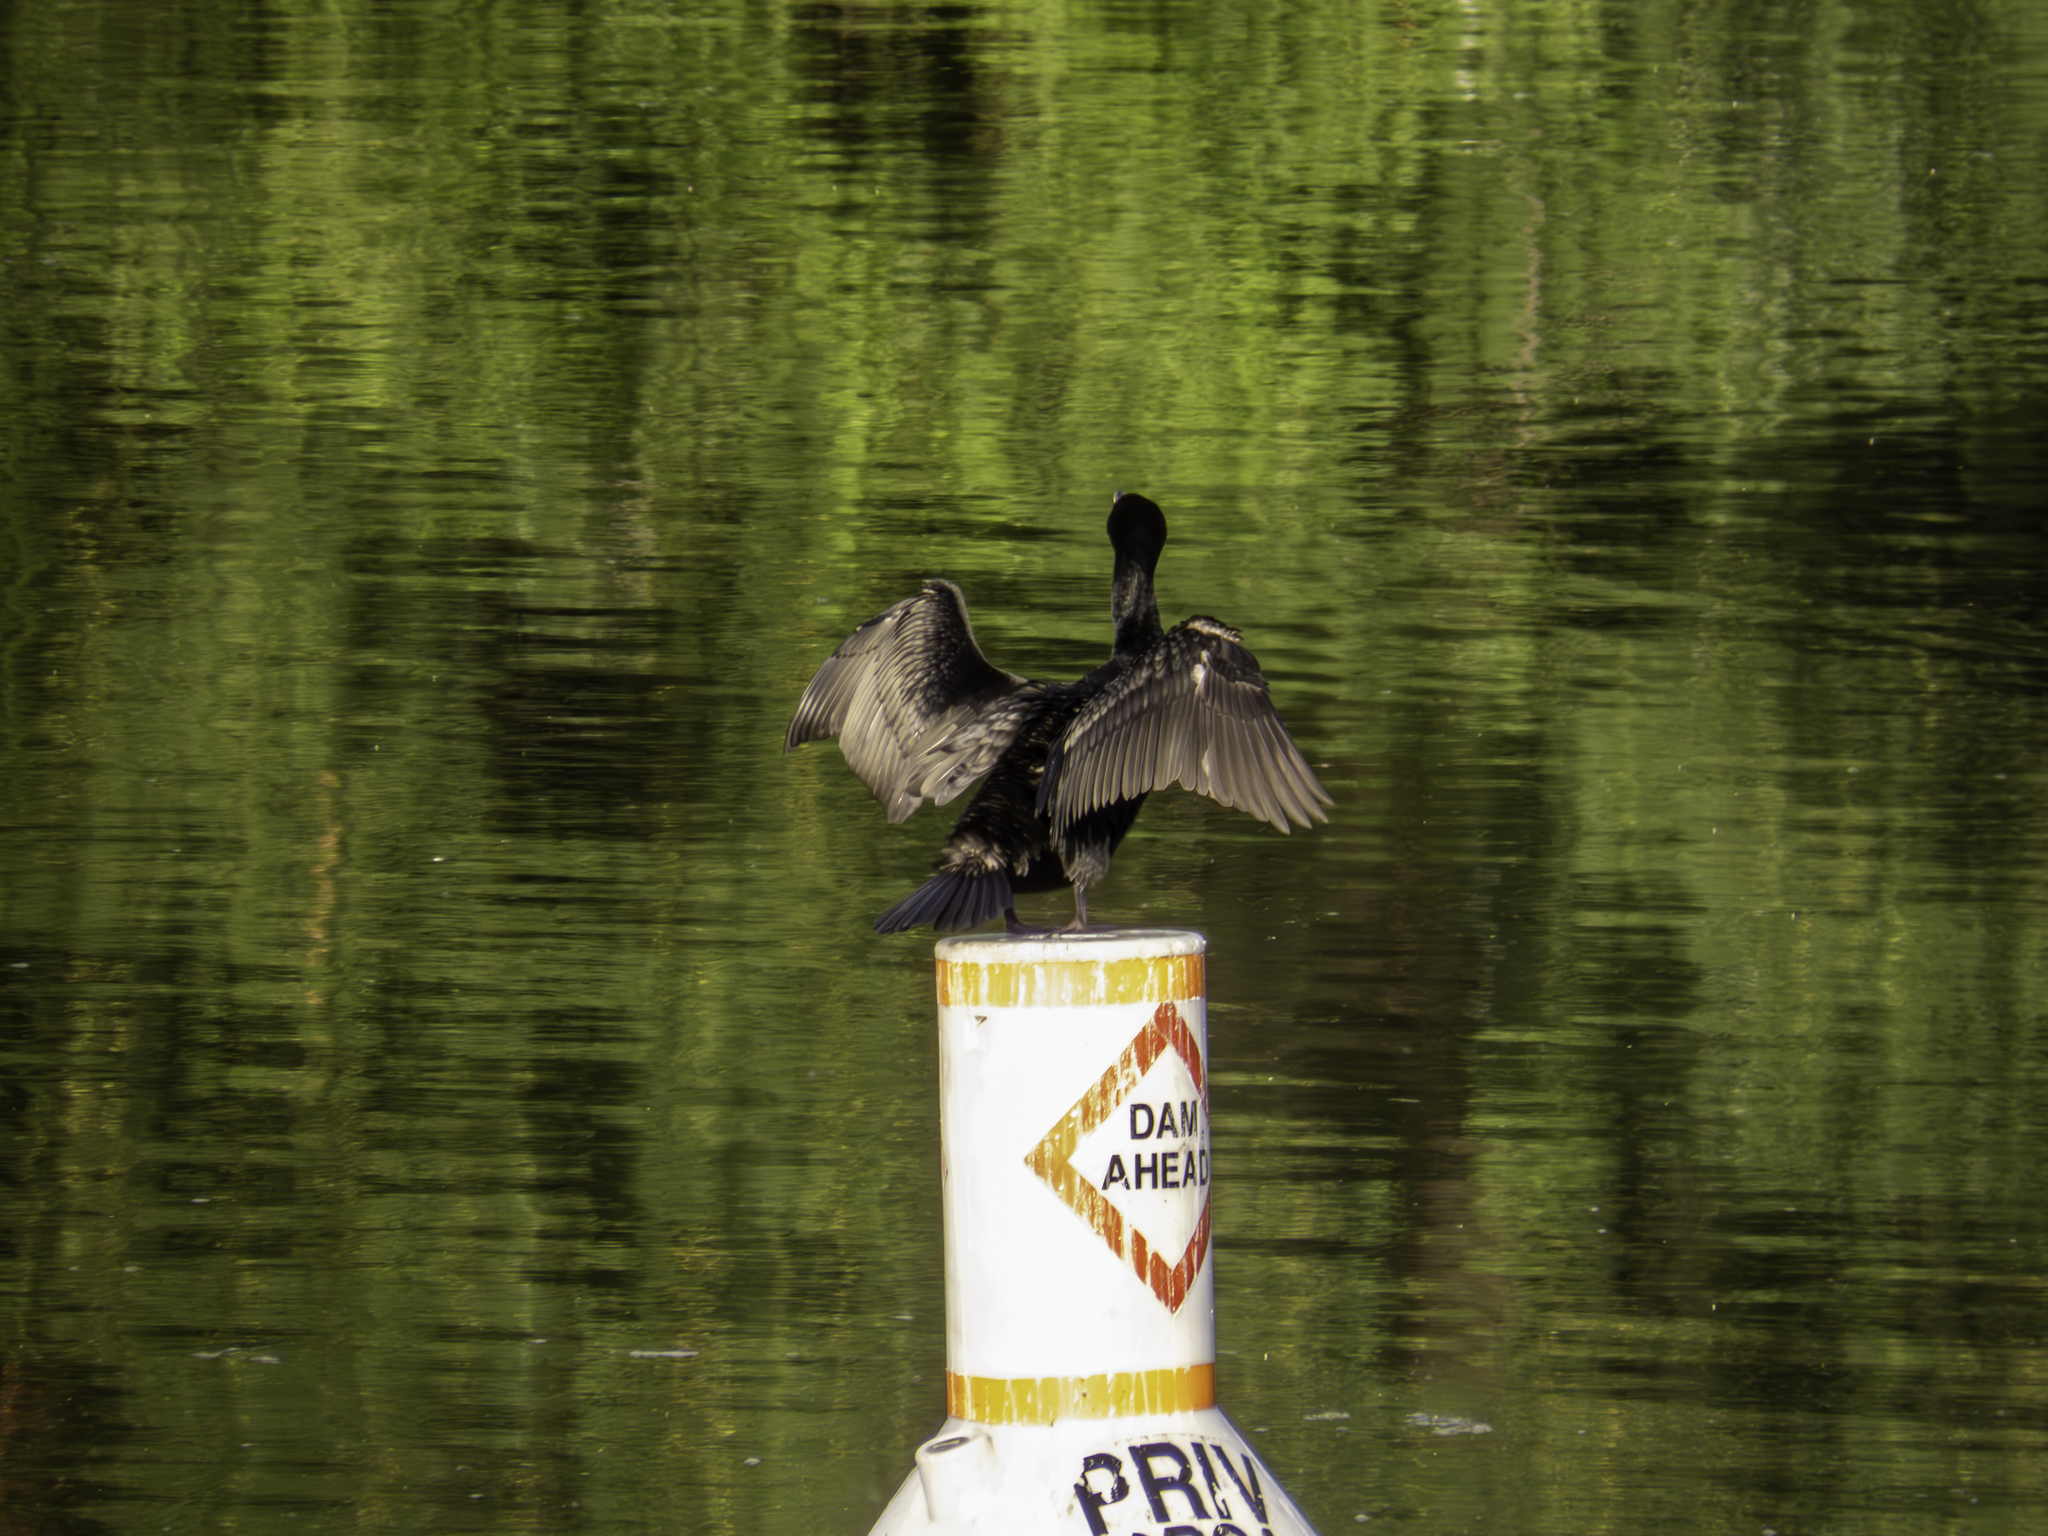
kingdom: Animalia
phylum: Chordata
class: Aves
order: Suliformes
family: Phalacrocoracidae
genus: Phalacrocorax
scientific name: Phalacrocorax auritus
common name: Double-crested cormorant
